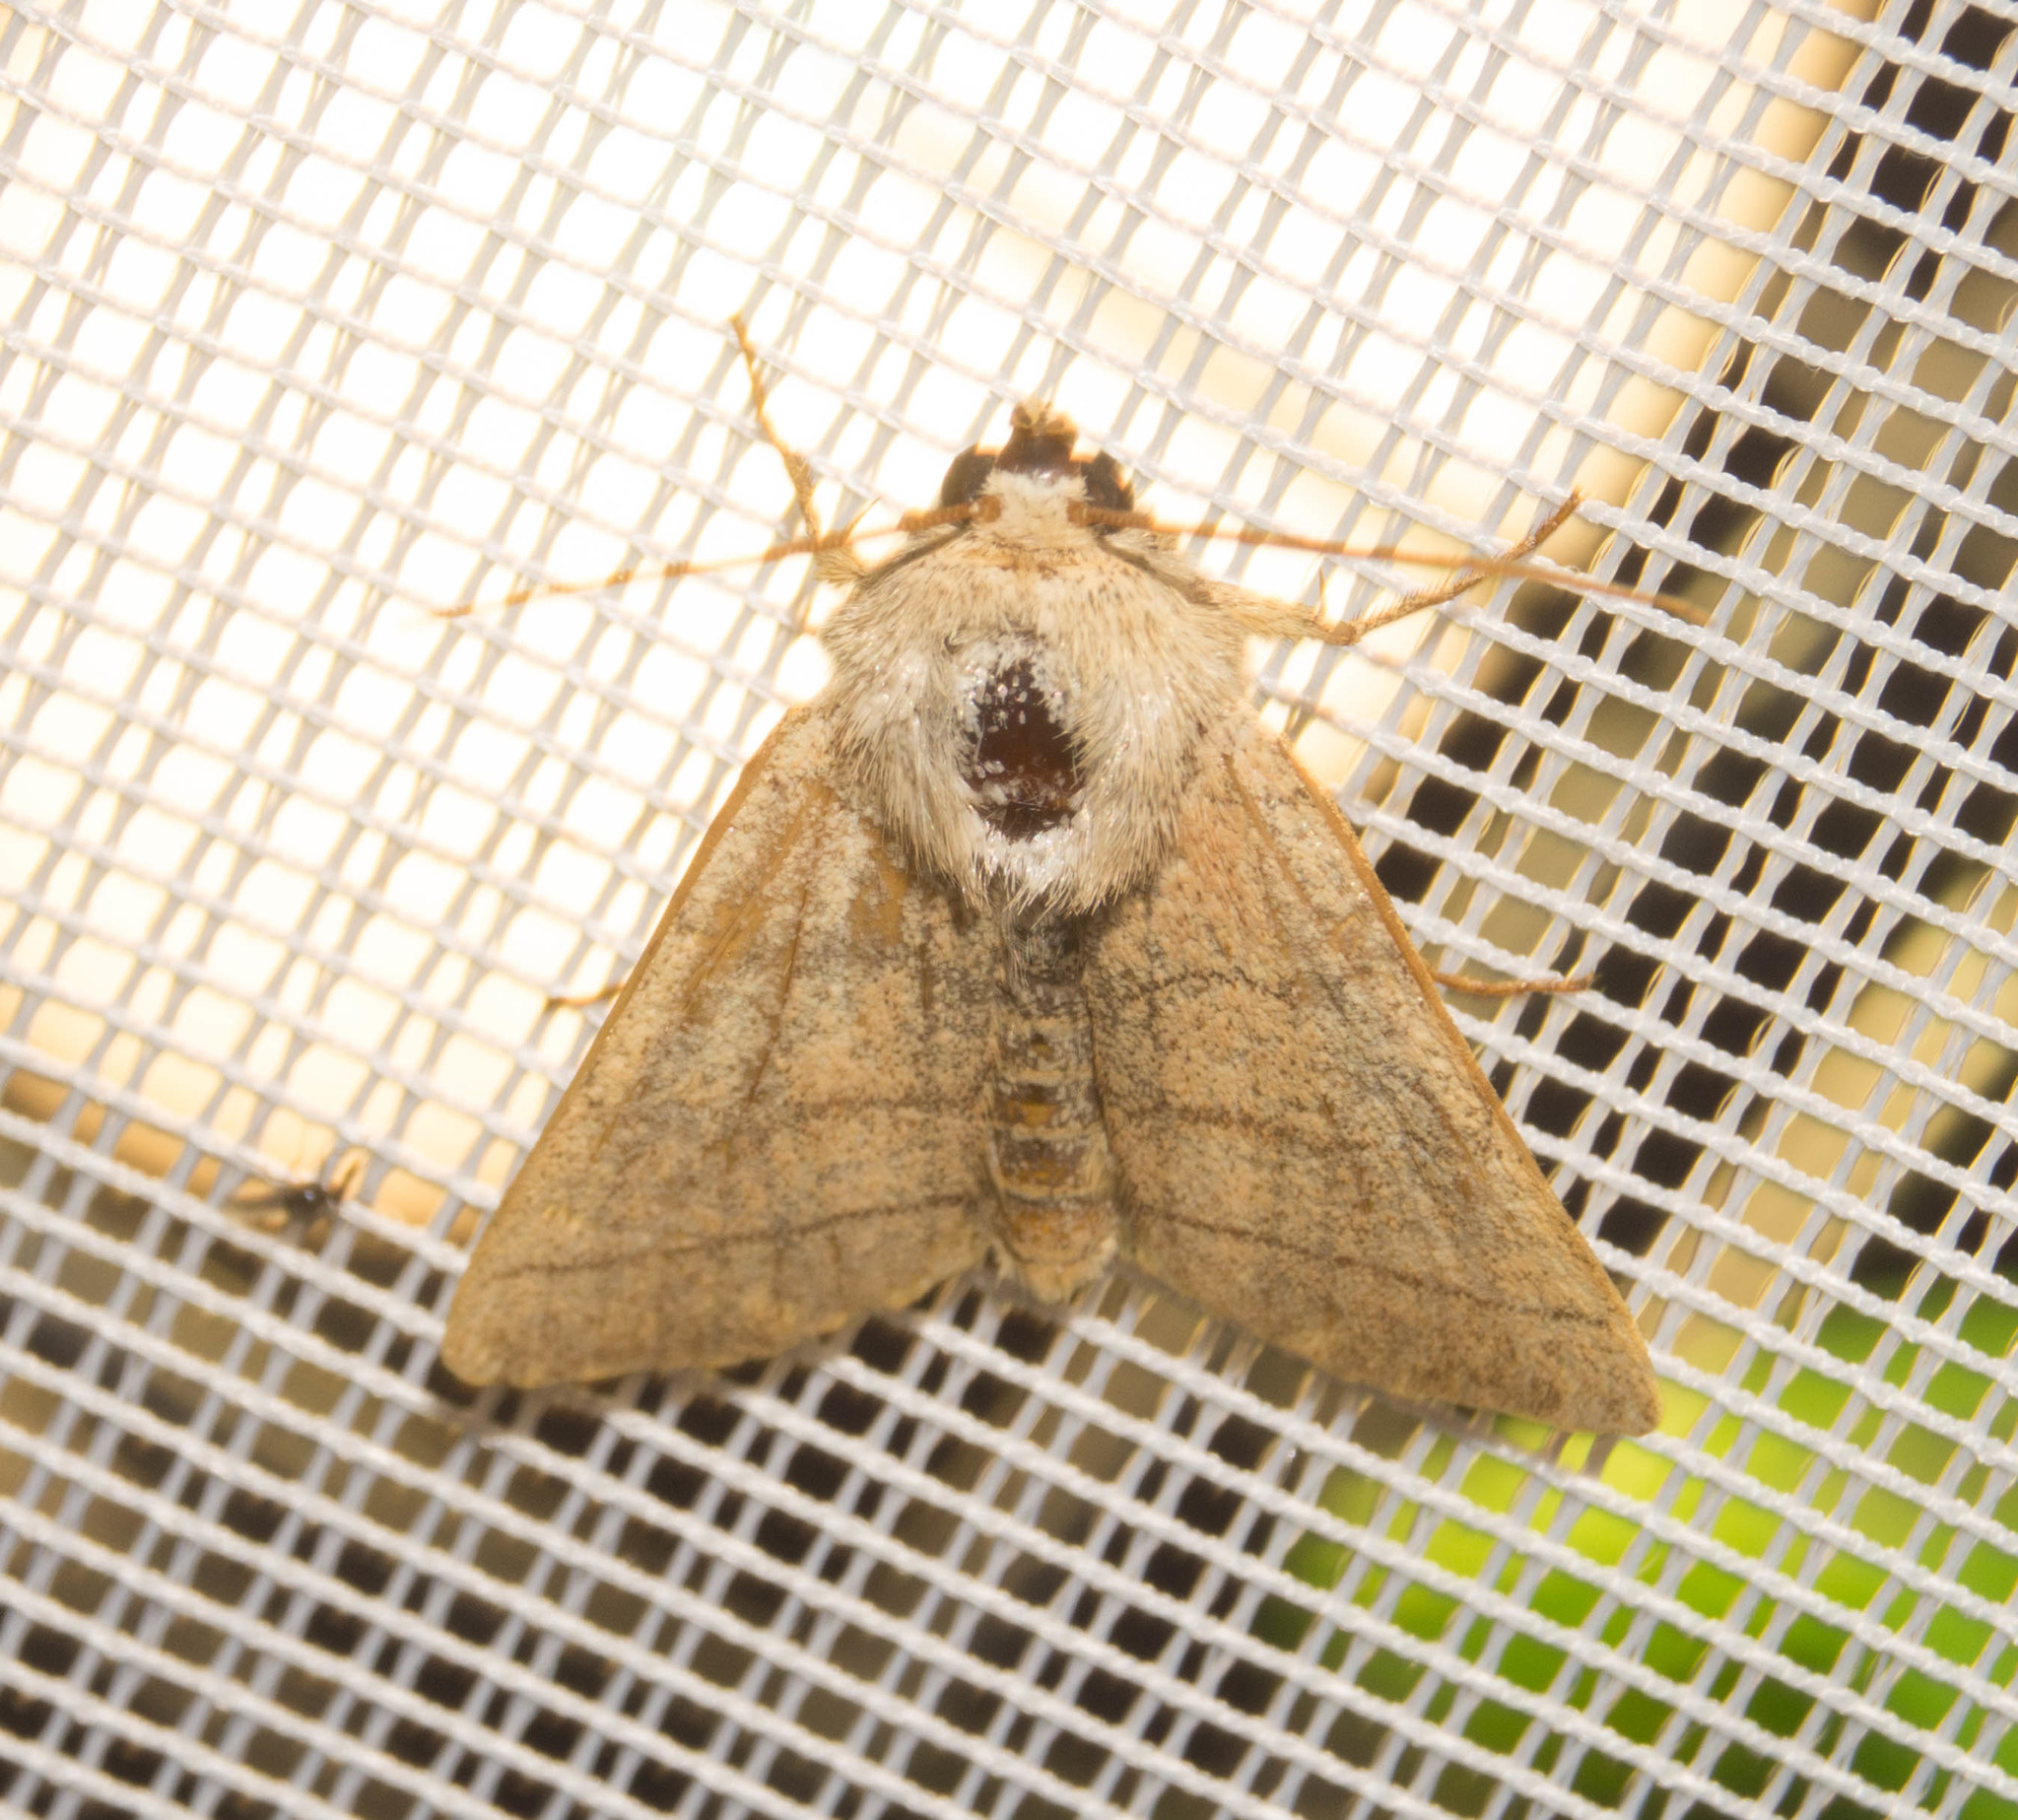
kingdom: Animalia
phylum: Arthropoda
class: Insecta
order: Lepidoptera
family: Noctuidae
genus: Charanyca
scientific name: Charanyca trigrammica
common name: Treble lines
